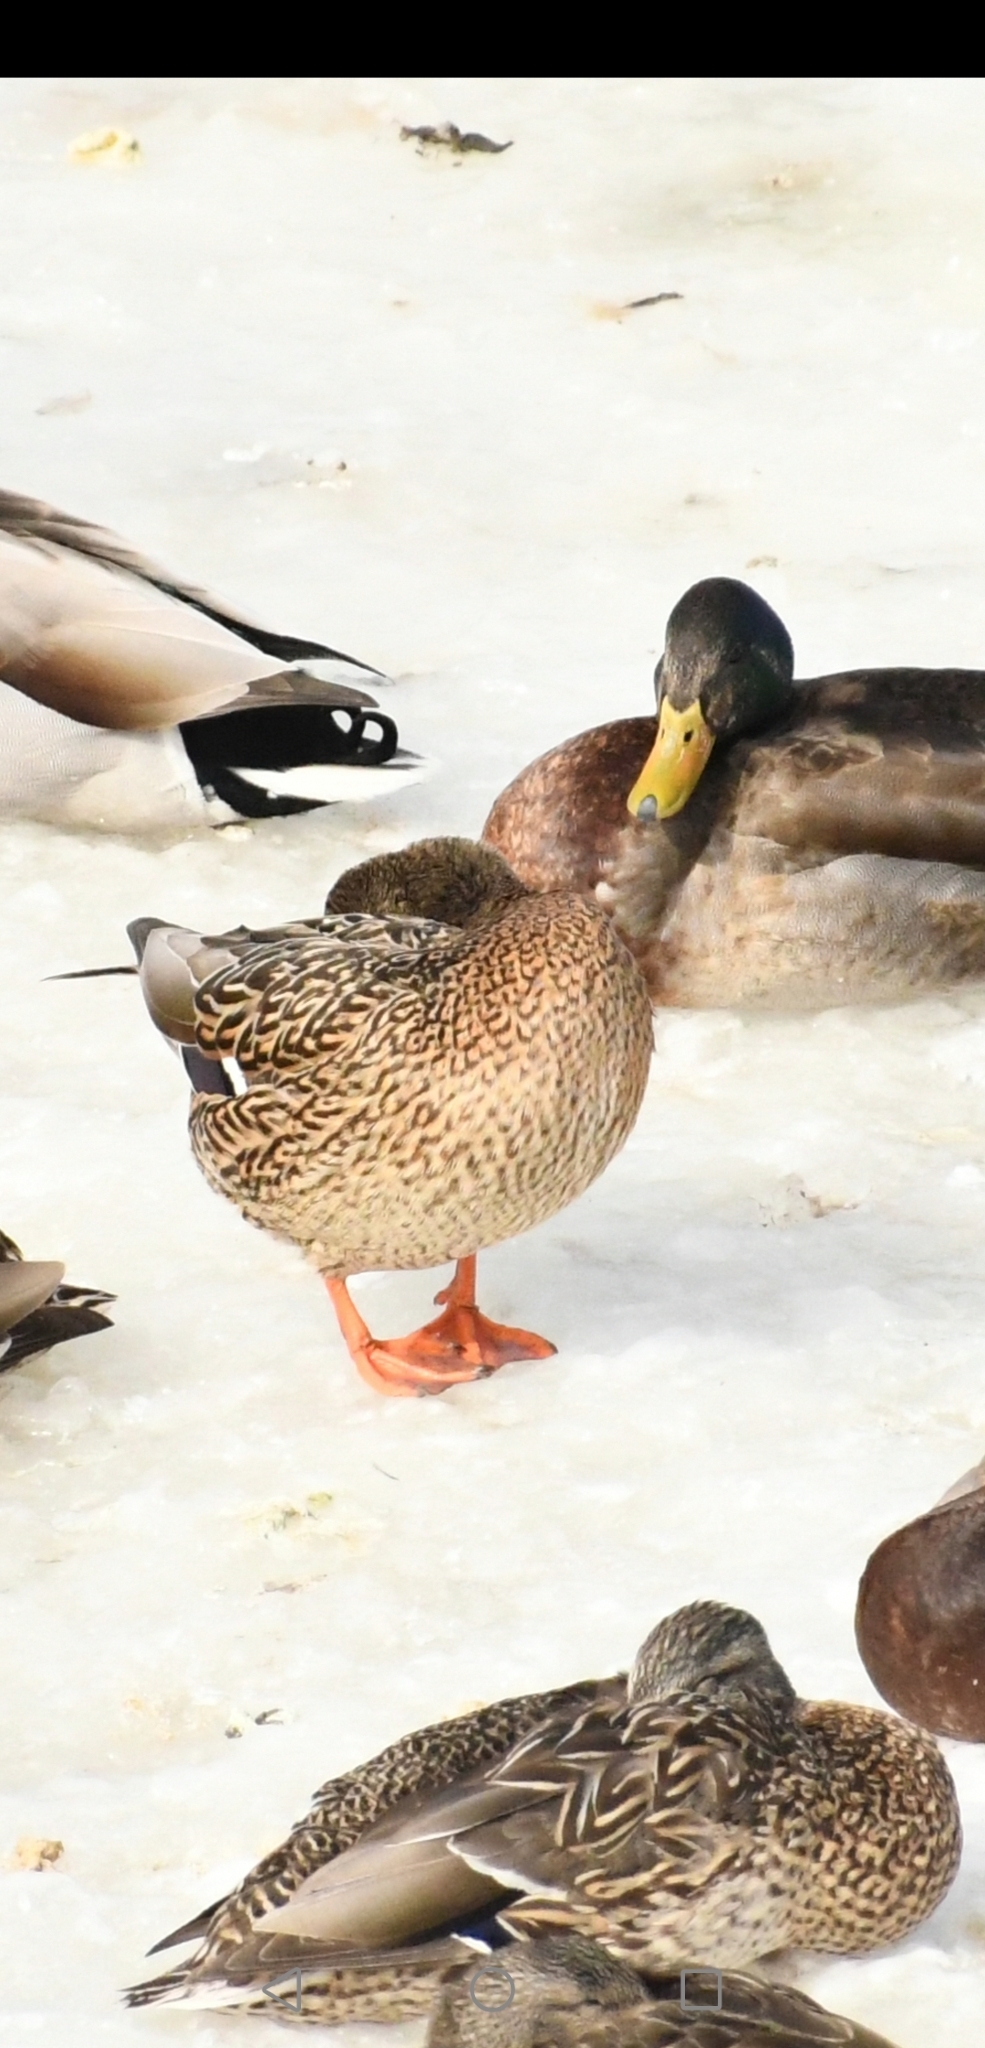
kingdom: Animalia
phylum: Chordata
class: Aves
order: Anseriformes
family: Anatidae
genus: Anas
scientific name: Anas platyrhynchos
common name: Mallard
